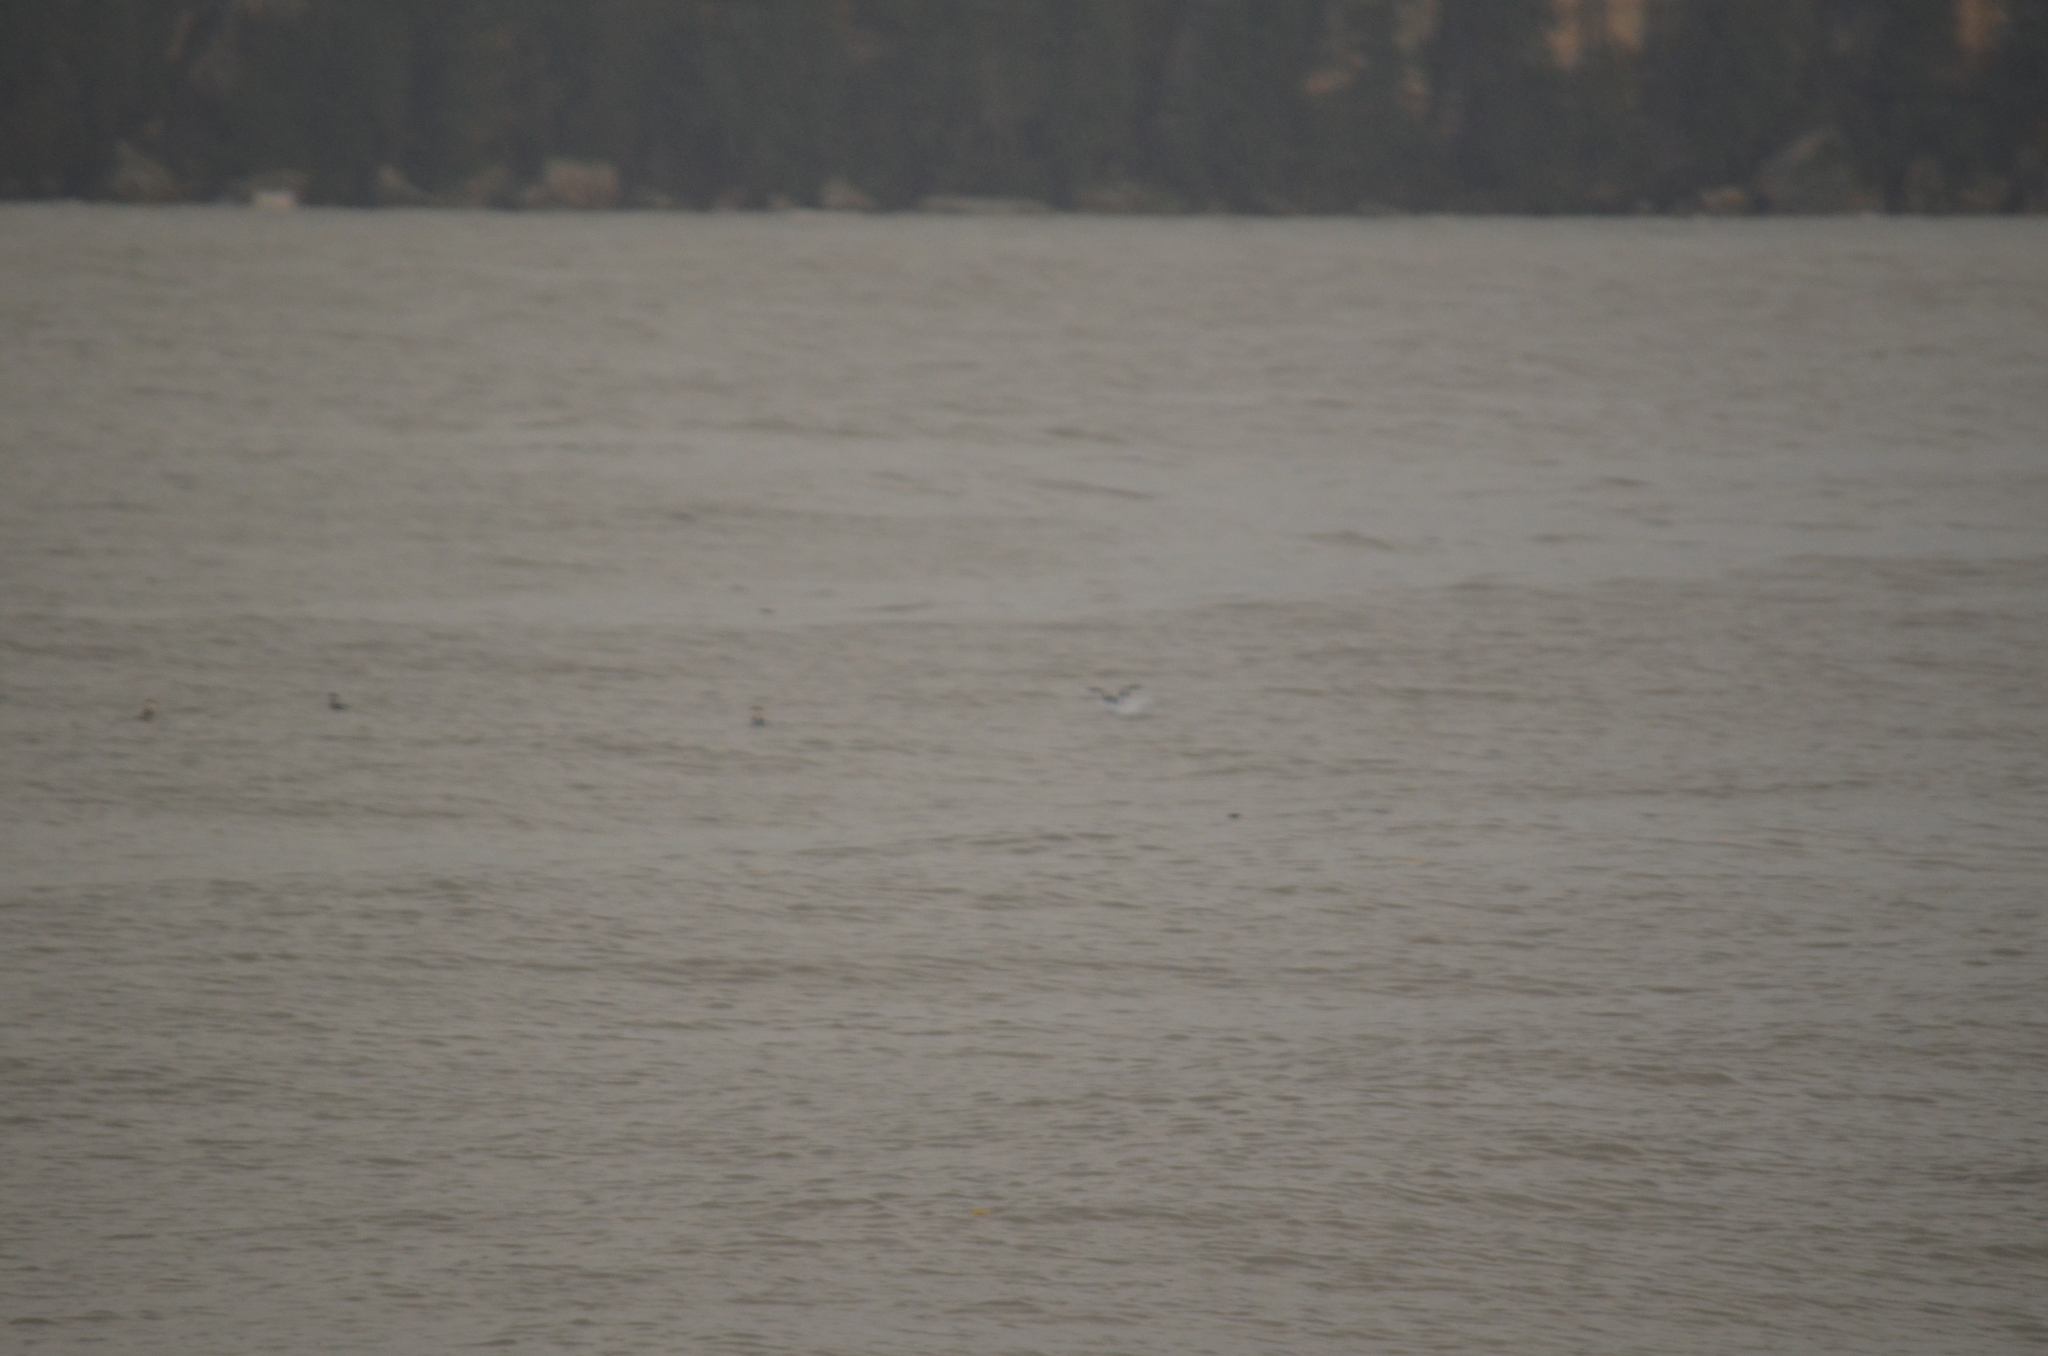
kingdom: Animalia
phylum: Chordata
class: Aves
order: Charadriiformes
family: Laridae
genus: Chroicocephalus
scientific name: Chroicocephalus philadelphia
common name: Bonaparte's gull
